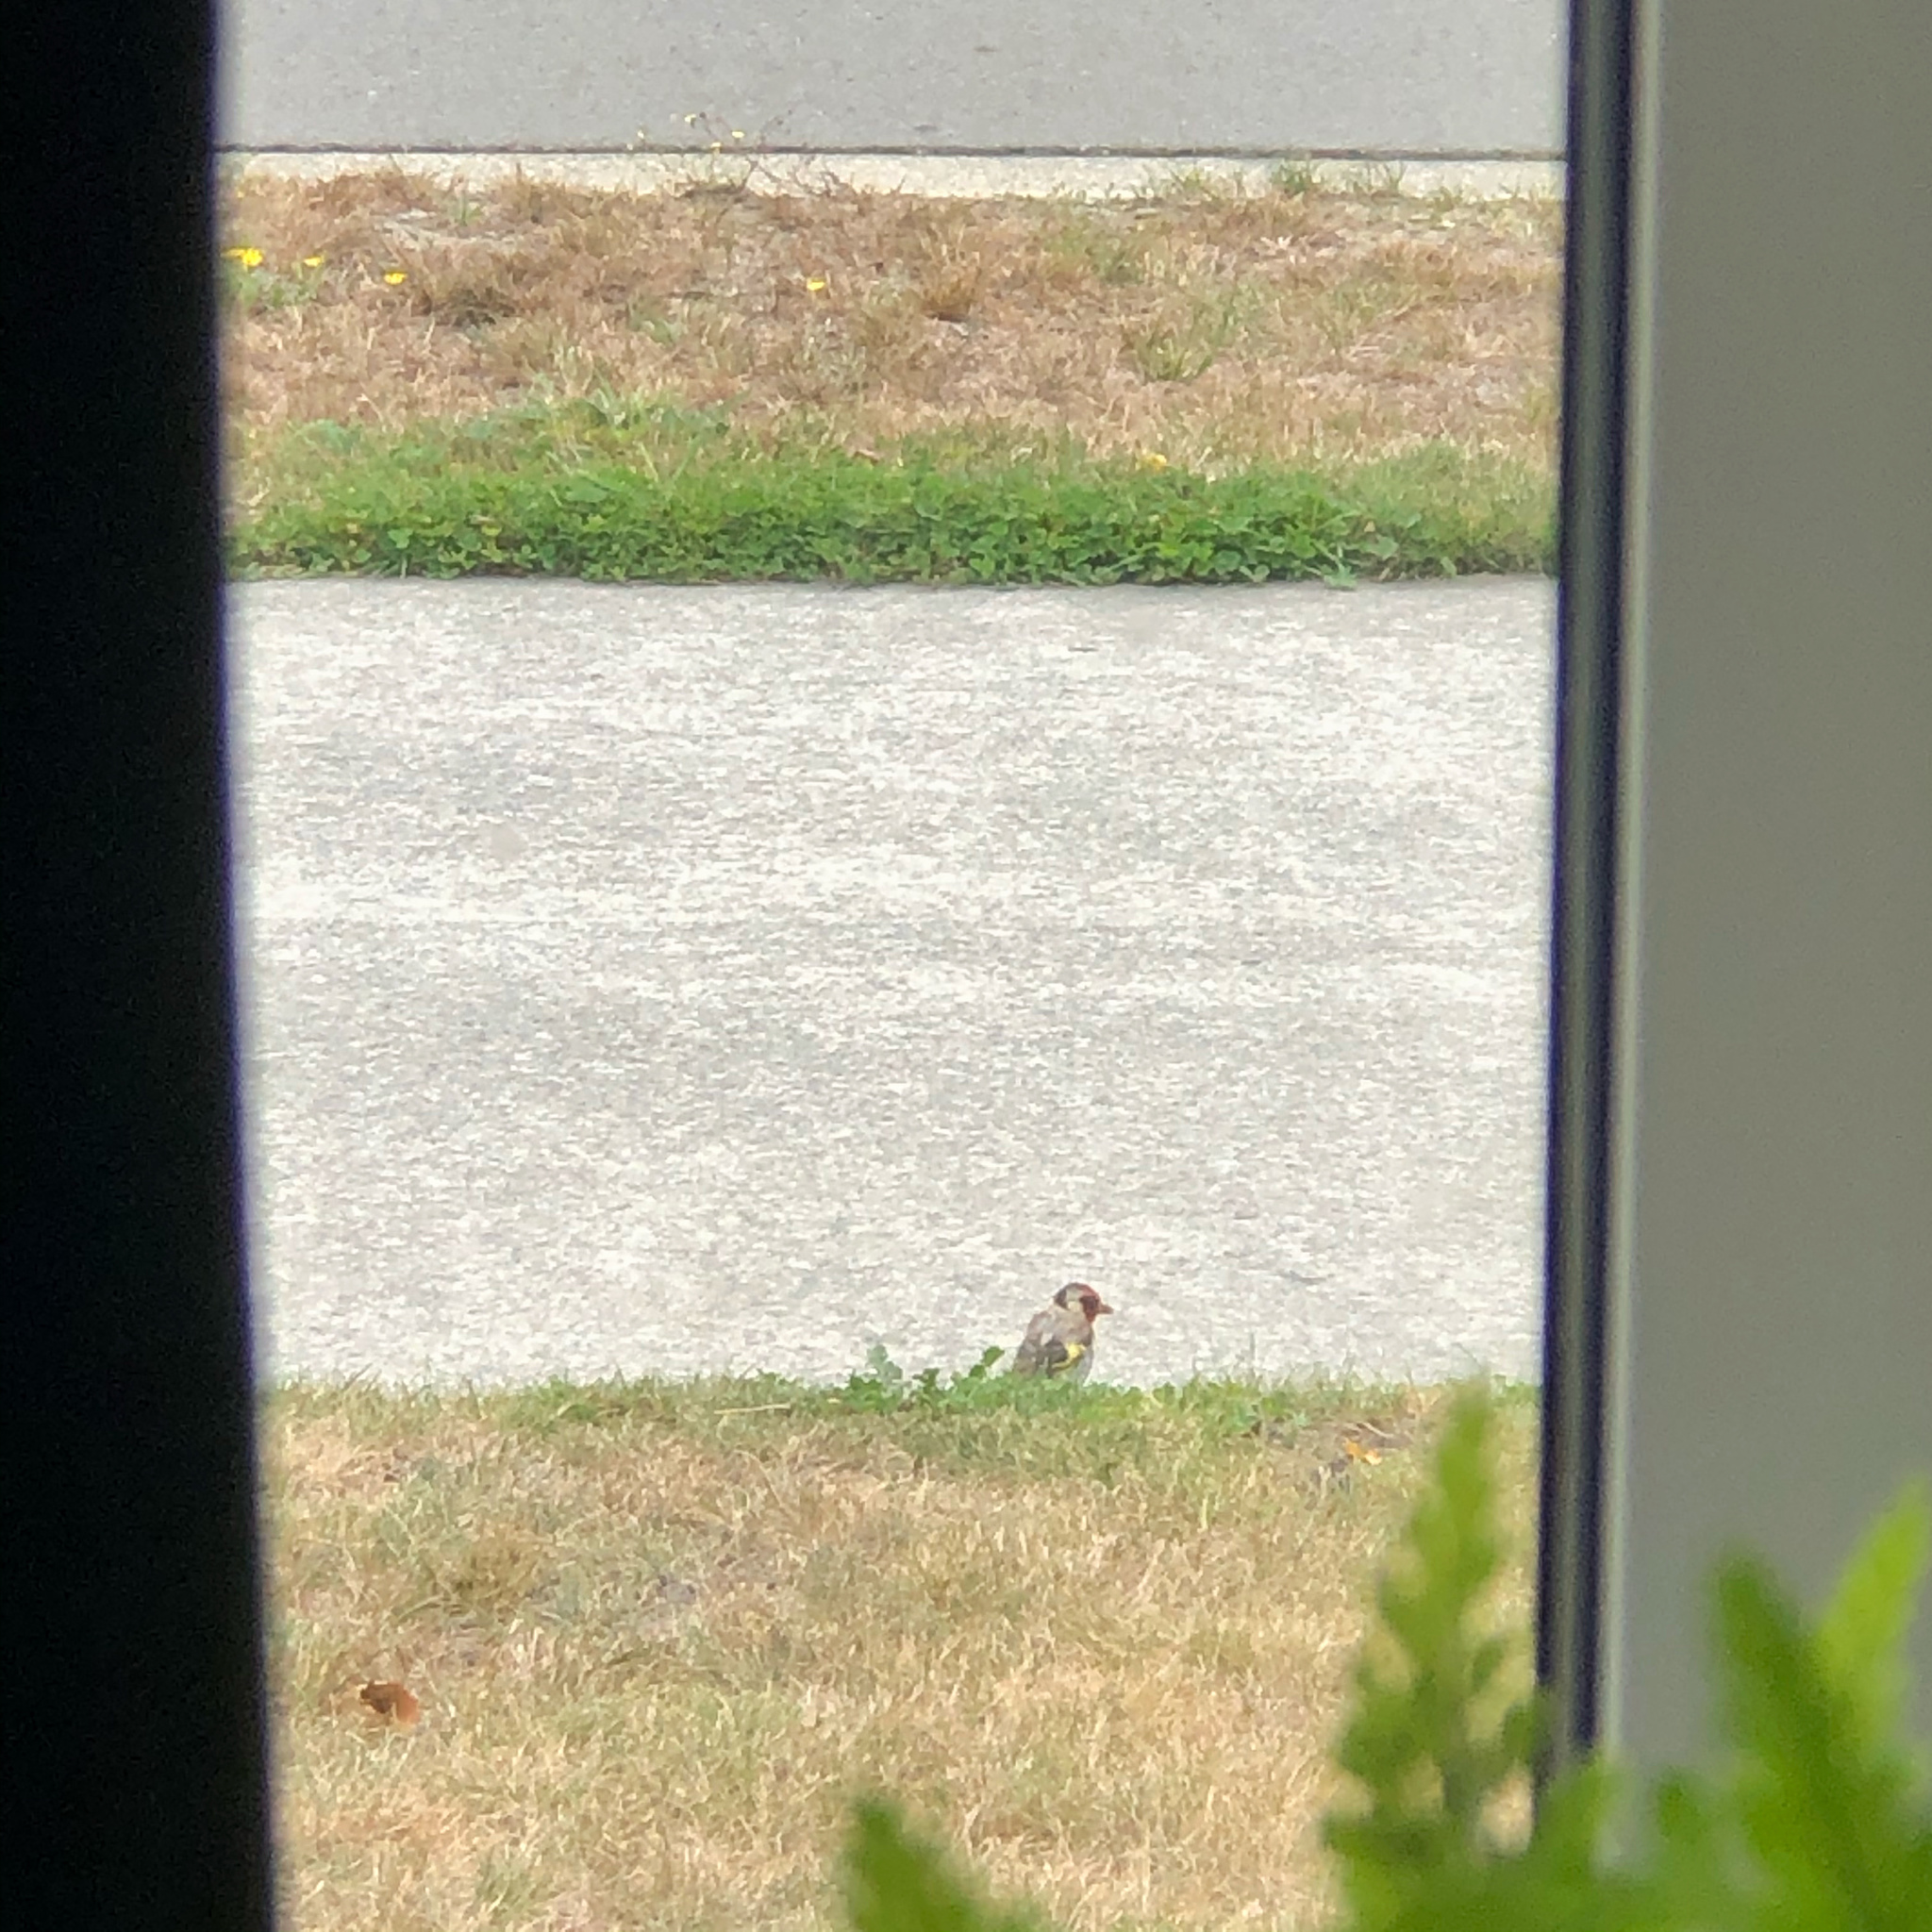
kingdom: Animalia
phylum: Chordata
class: Aves
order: Passeriformes
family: Fringillidae
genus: Carduelis
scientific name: Carduelis carduelis
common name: European goldfinch
